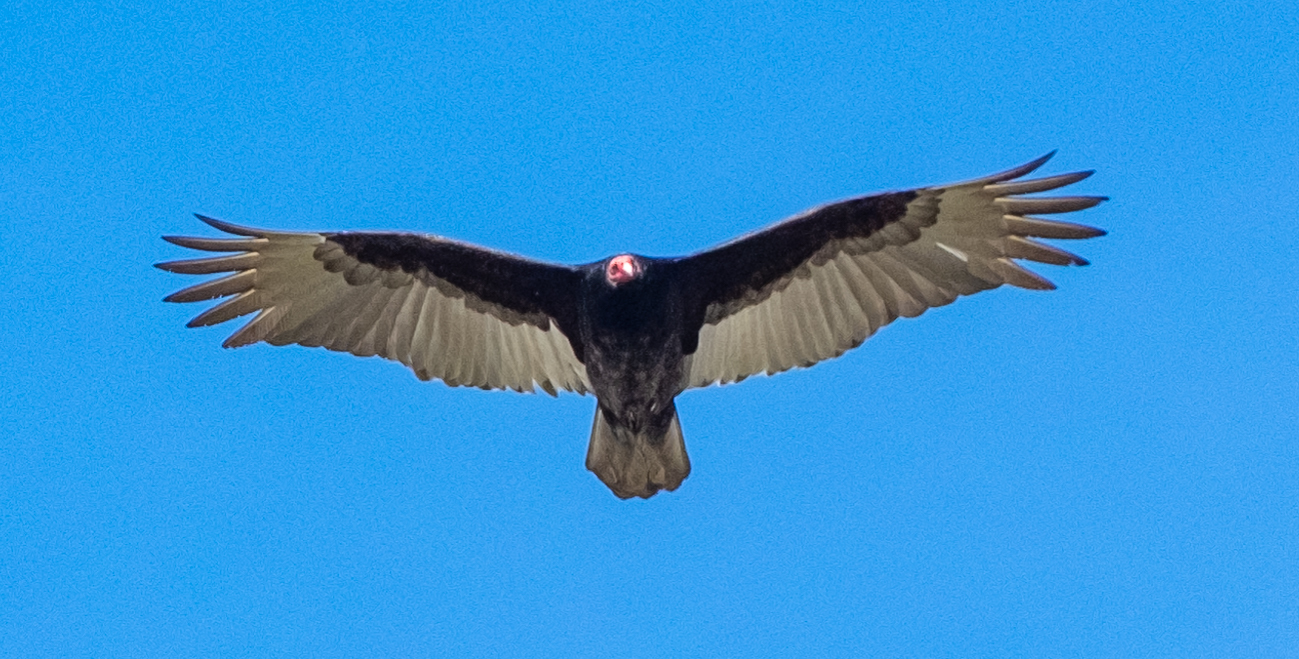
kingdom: Animalia
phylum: Chordata
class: Aves
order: Accipitriformes
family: Cathartidae
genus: Cathartes
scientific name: Cathartes aura
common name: Turkey vulture
